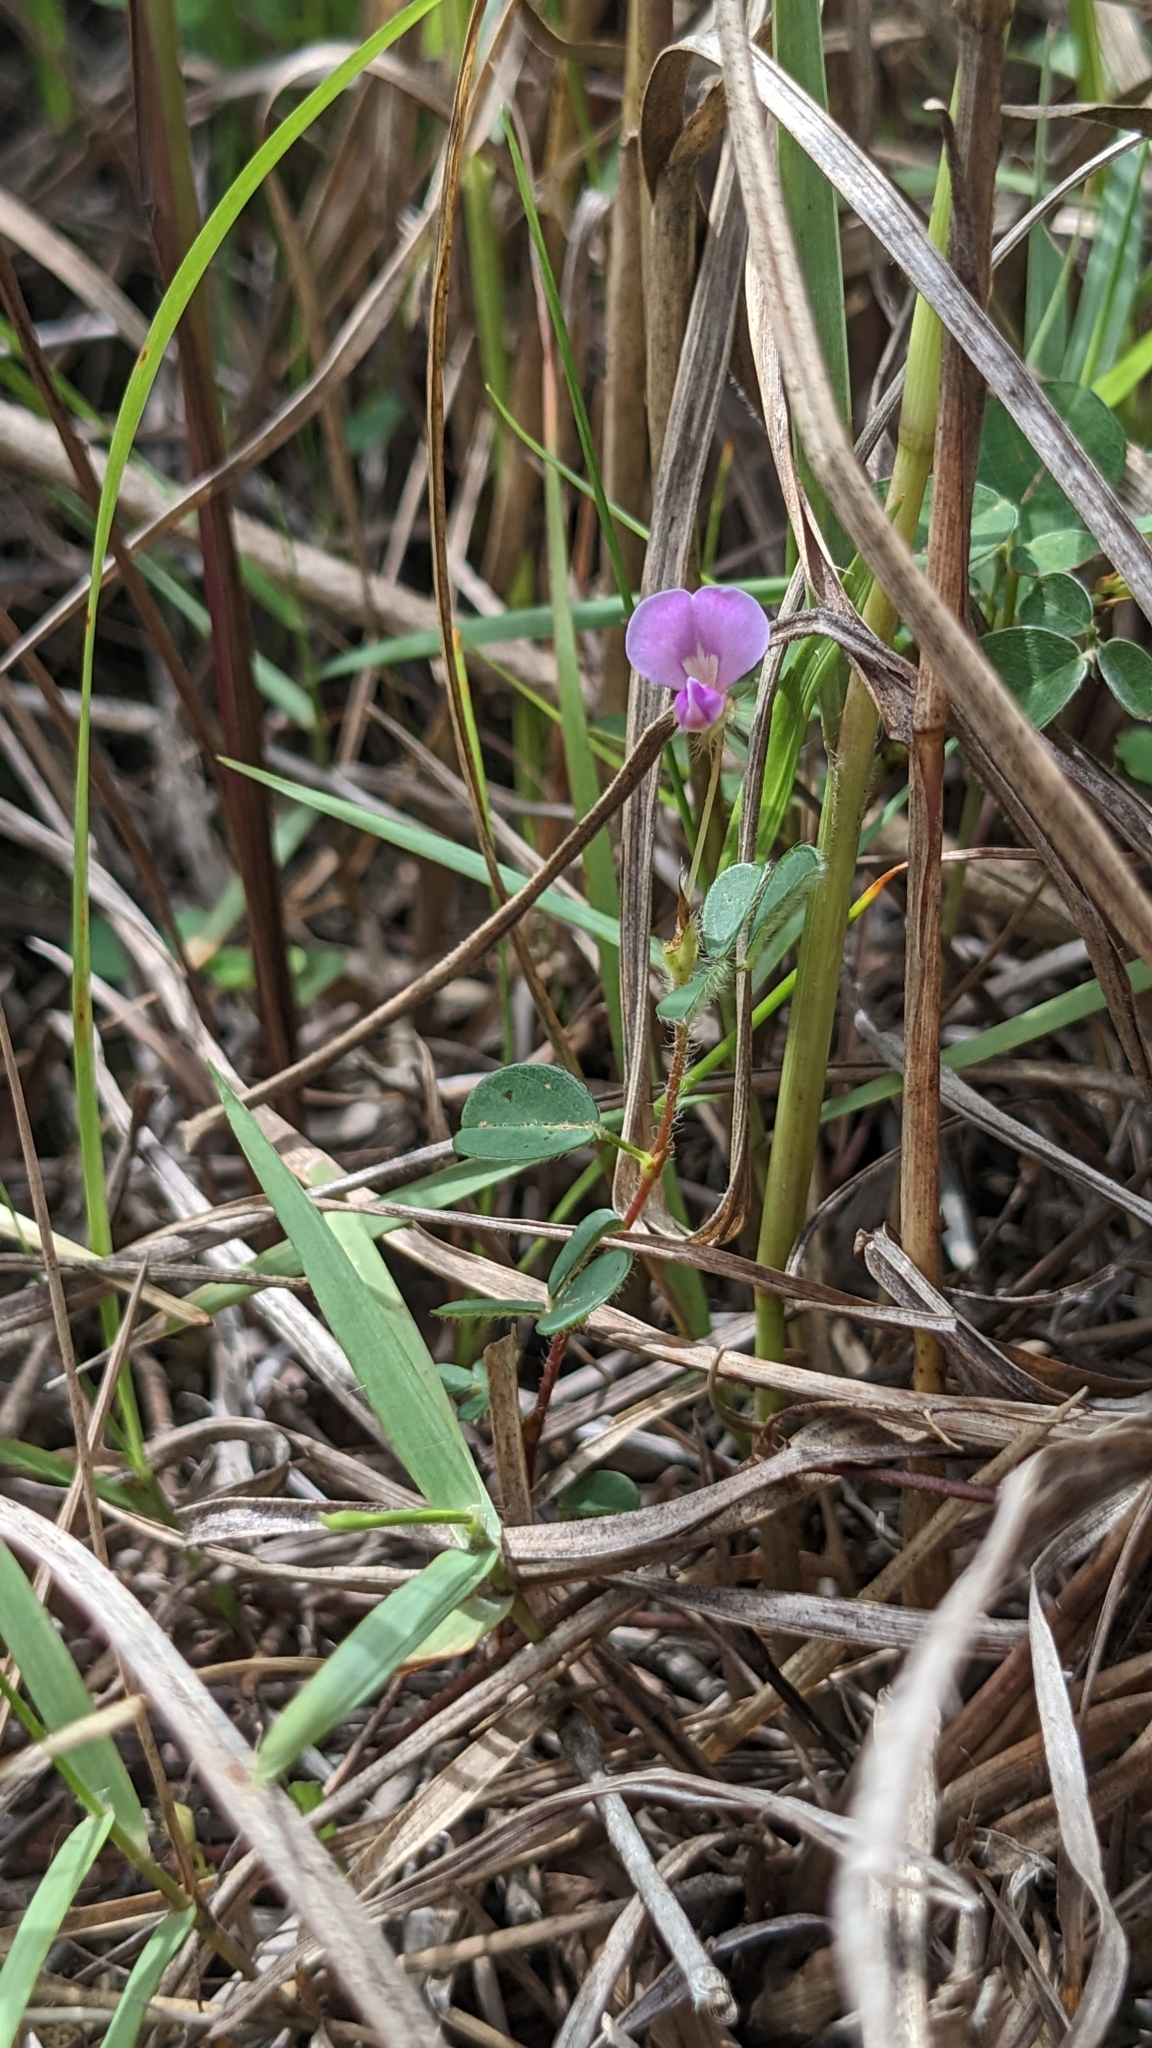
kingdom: Plantae
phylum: Tracheophyta
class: Magnoliopsida
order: Fabales
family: Fabaceae
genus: Grona
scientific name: Grona heterophylla
